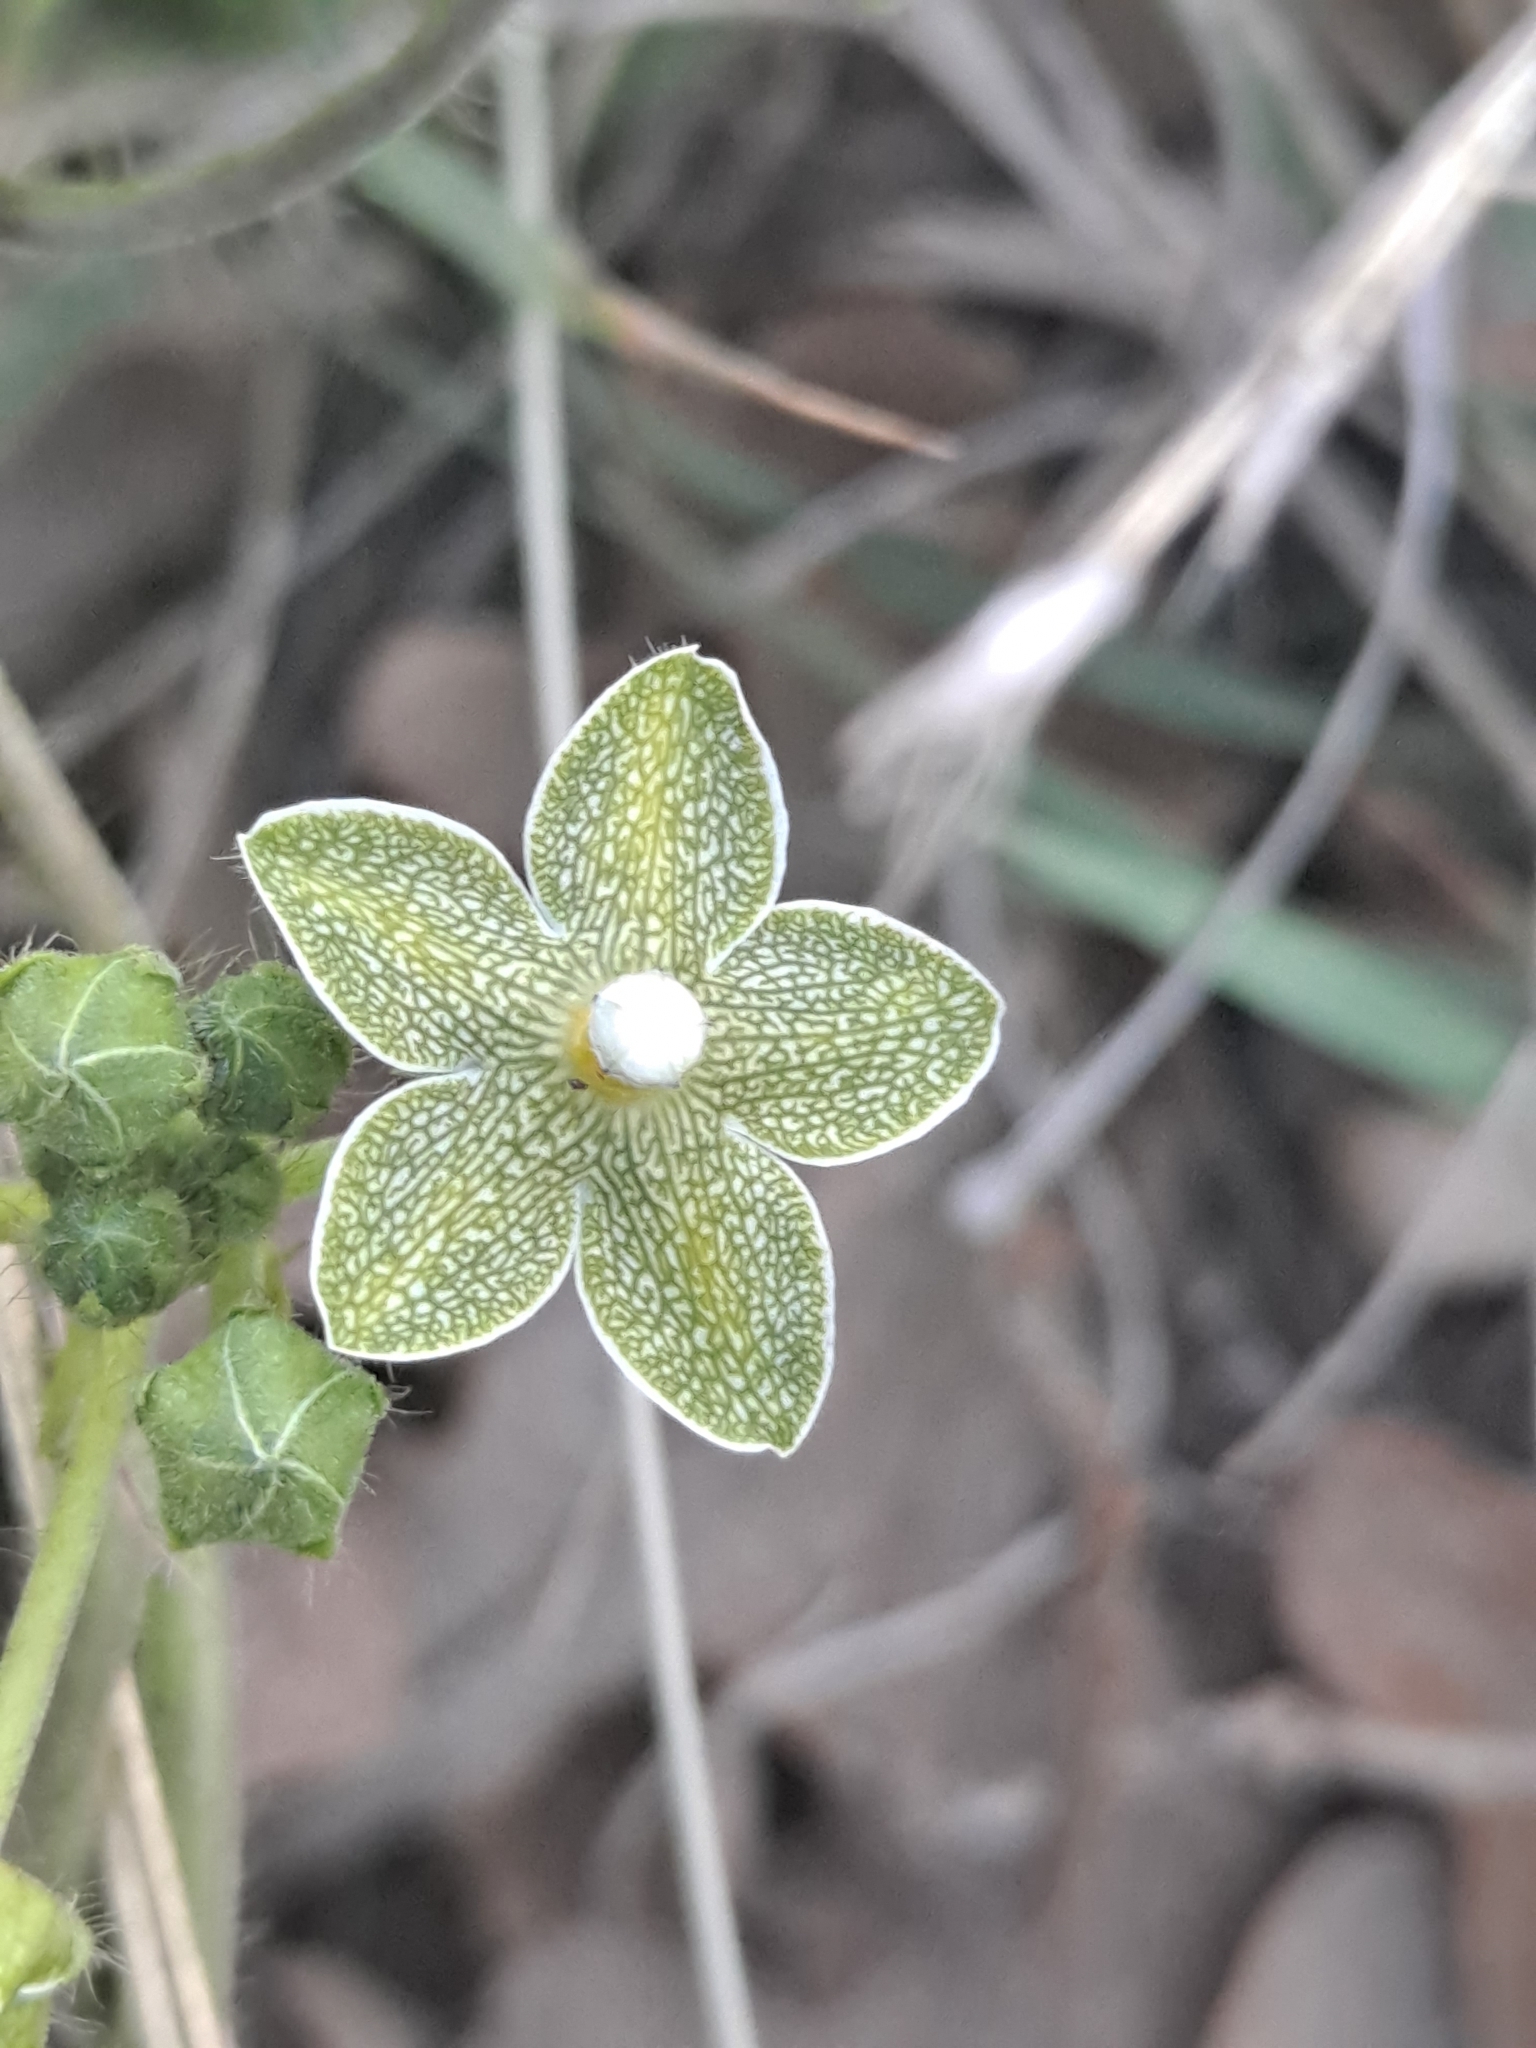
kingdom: Plantae
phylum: Tracheophyta
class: Magnoliopsida
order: Gentianales
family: Apocynaceae
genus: Dictyanthus
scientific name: Dictyanthus reticulatus
